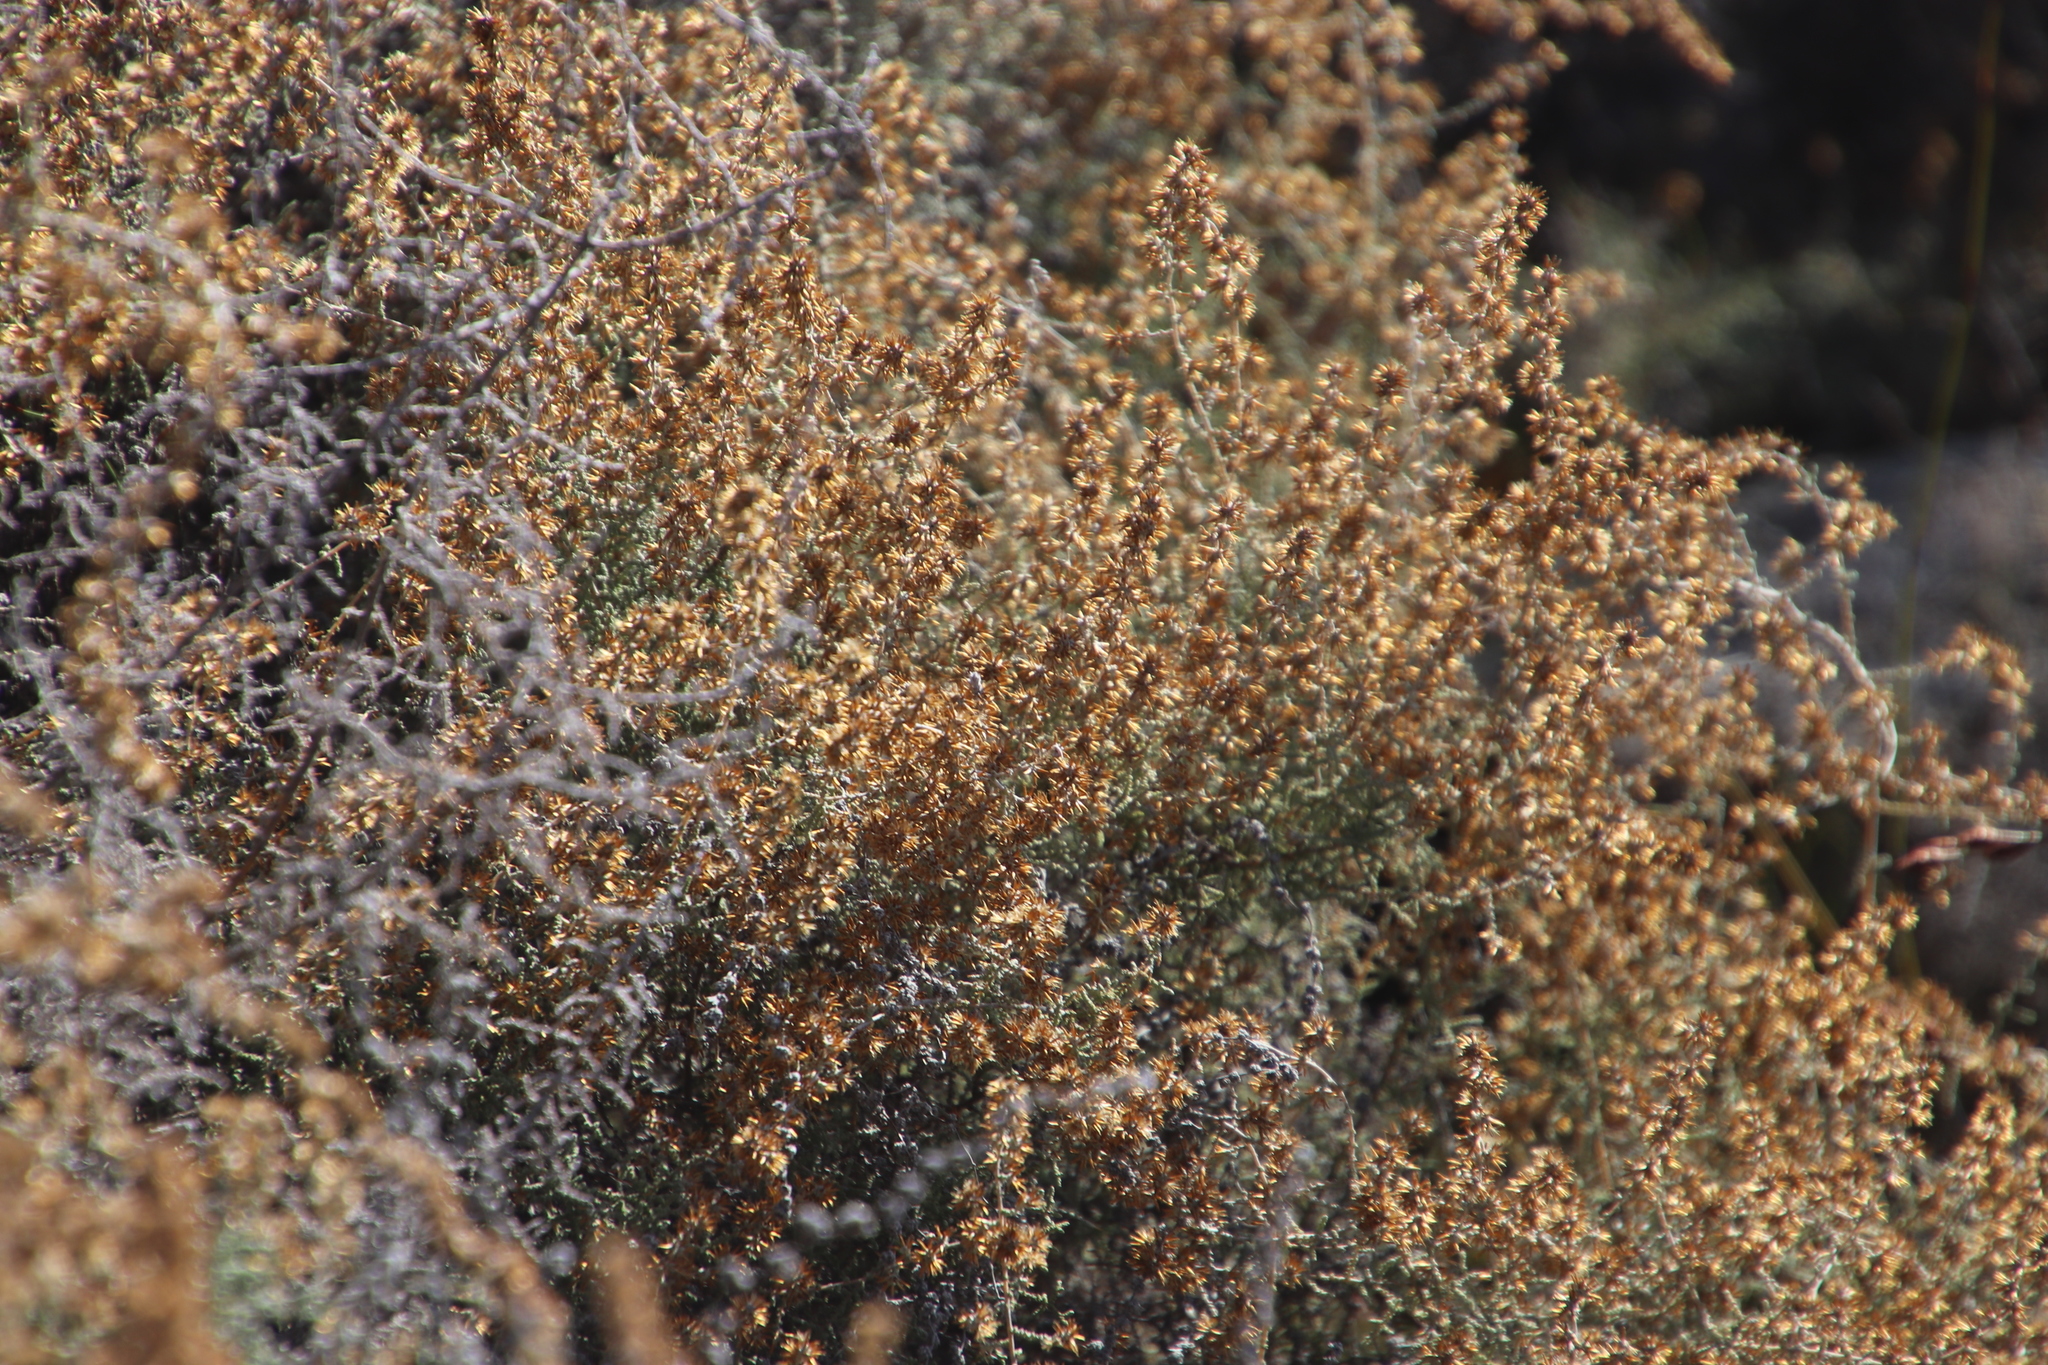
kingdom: Plantae
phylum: Tracheophyta
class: Magnoliopsida
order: Asterales
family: Asteraceae
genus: Seriphium
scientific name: Seriphium plumosum
